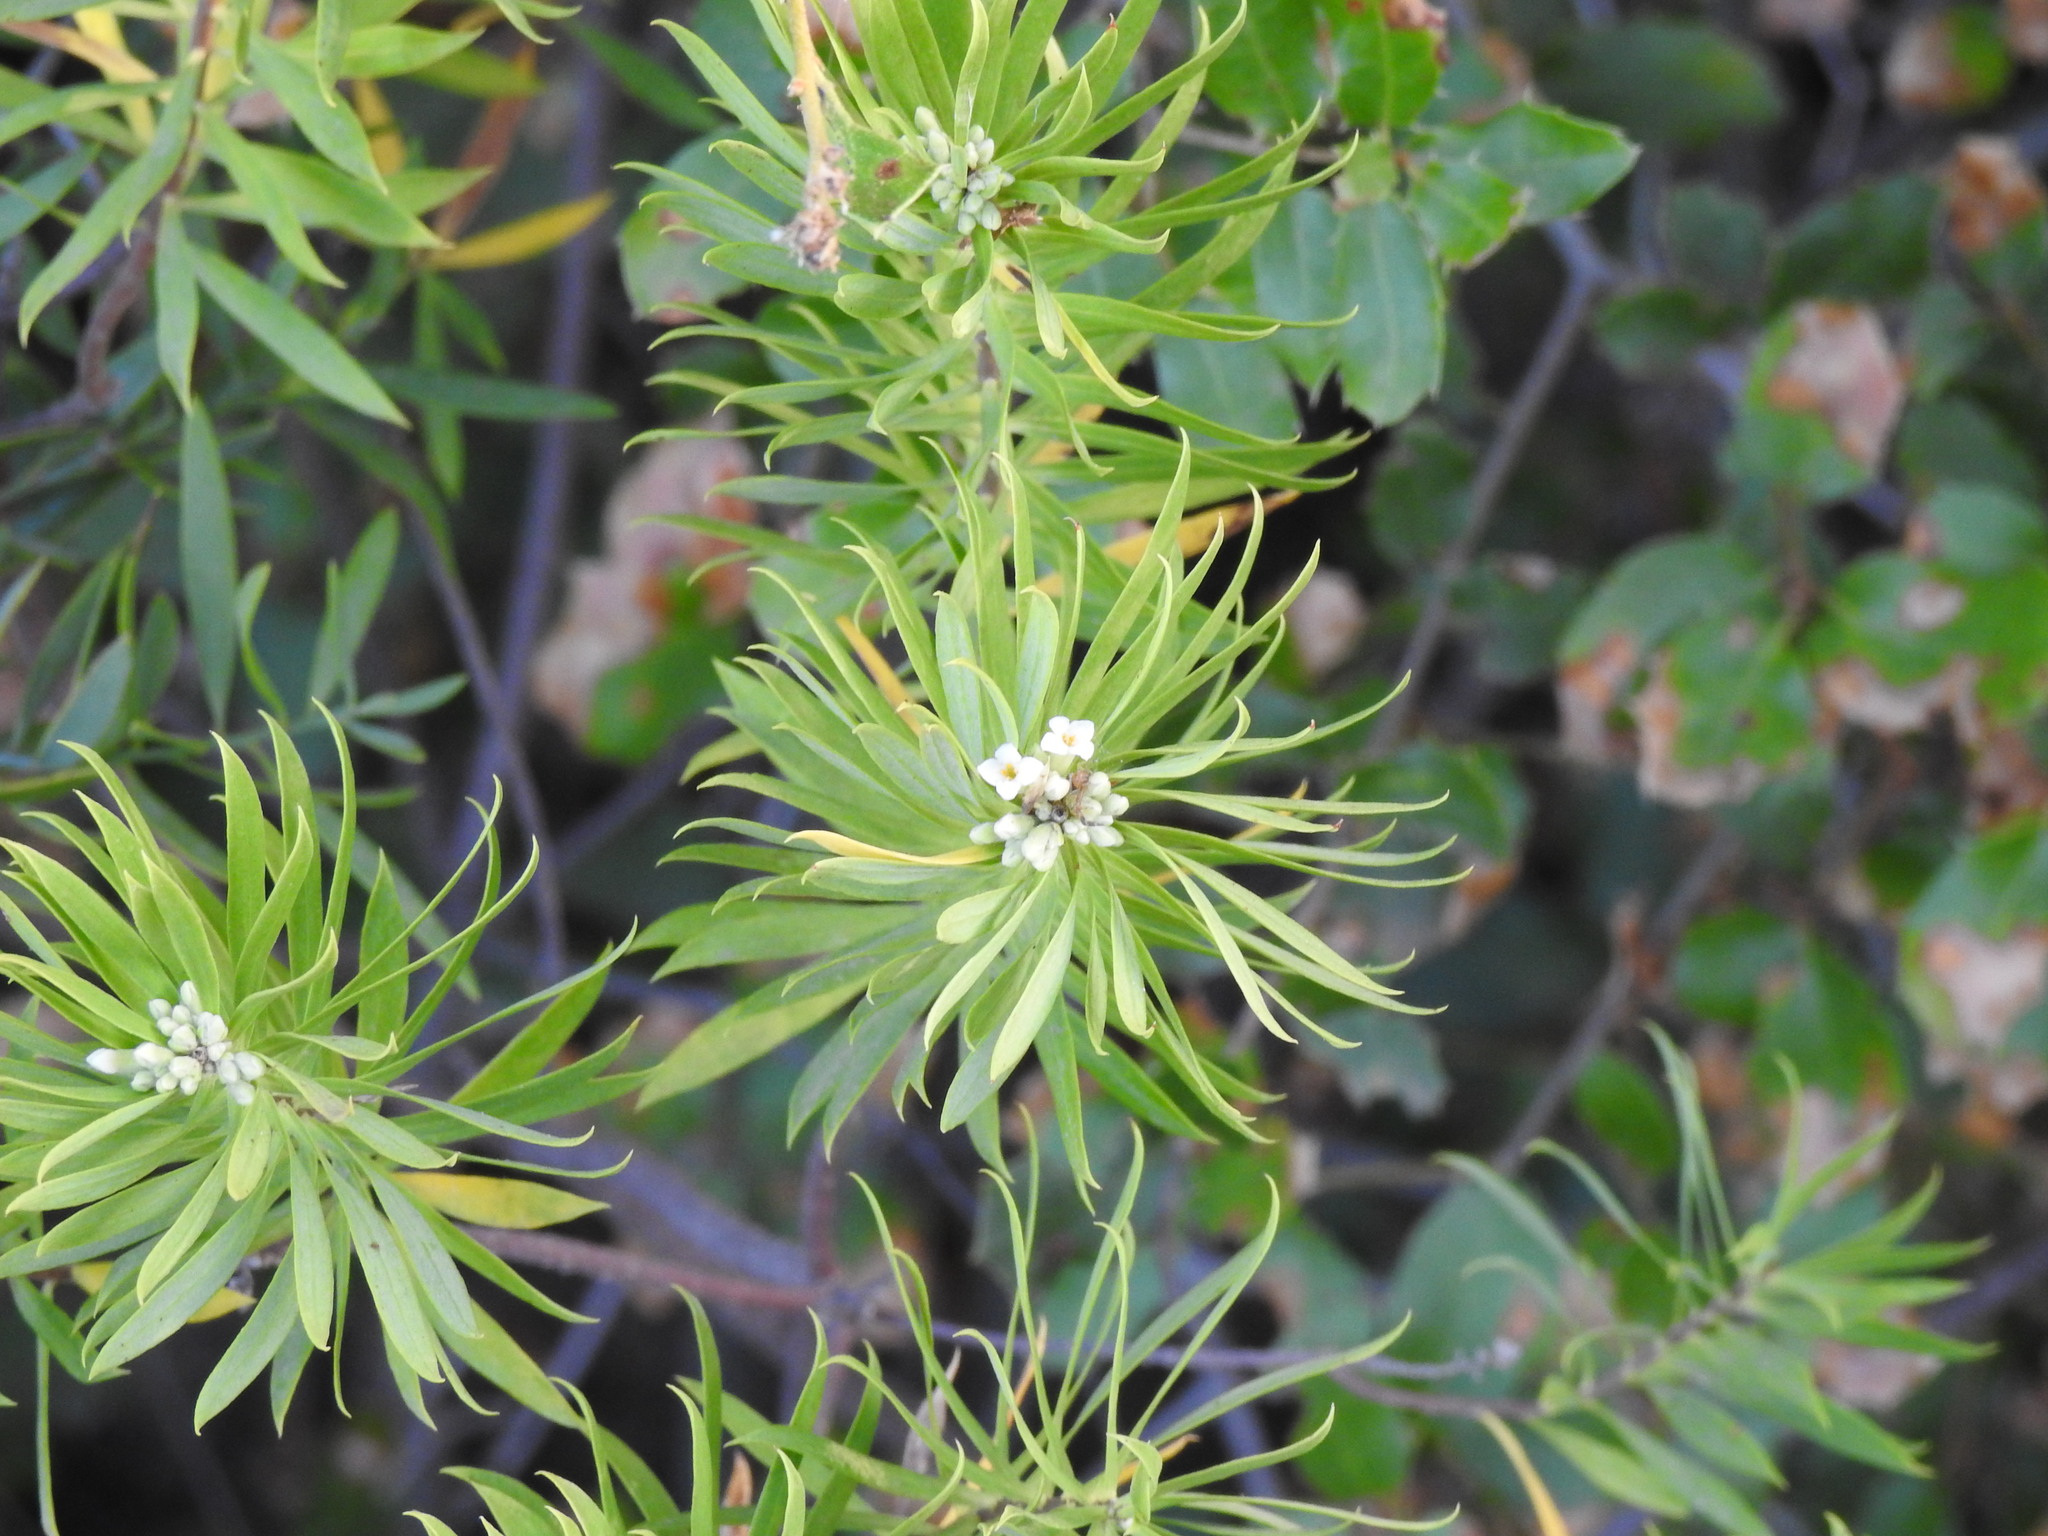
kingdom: Plantae
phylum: Tracheophyta
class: Magnoliopsida
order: Malvales
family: Thymelaeaceae
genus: Daphne
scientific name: Daphne gnidium
